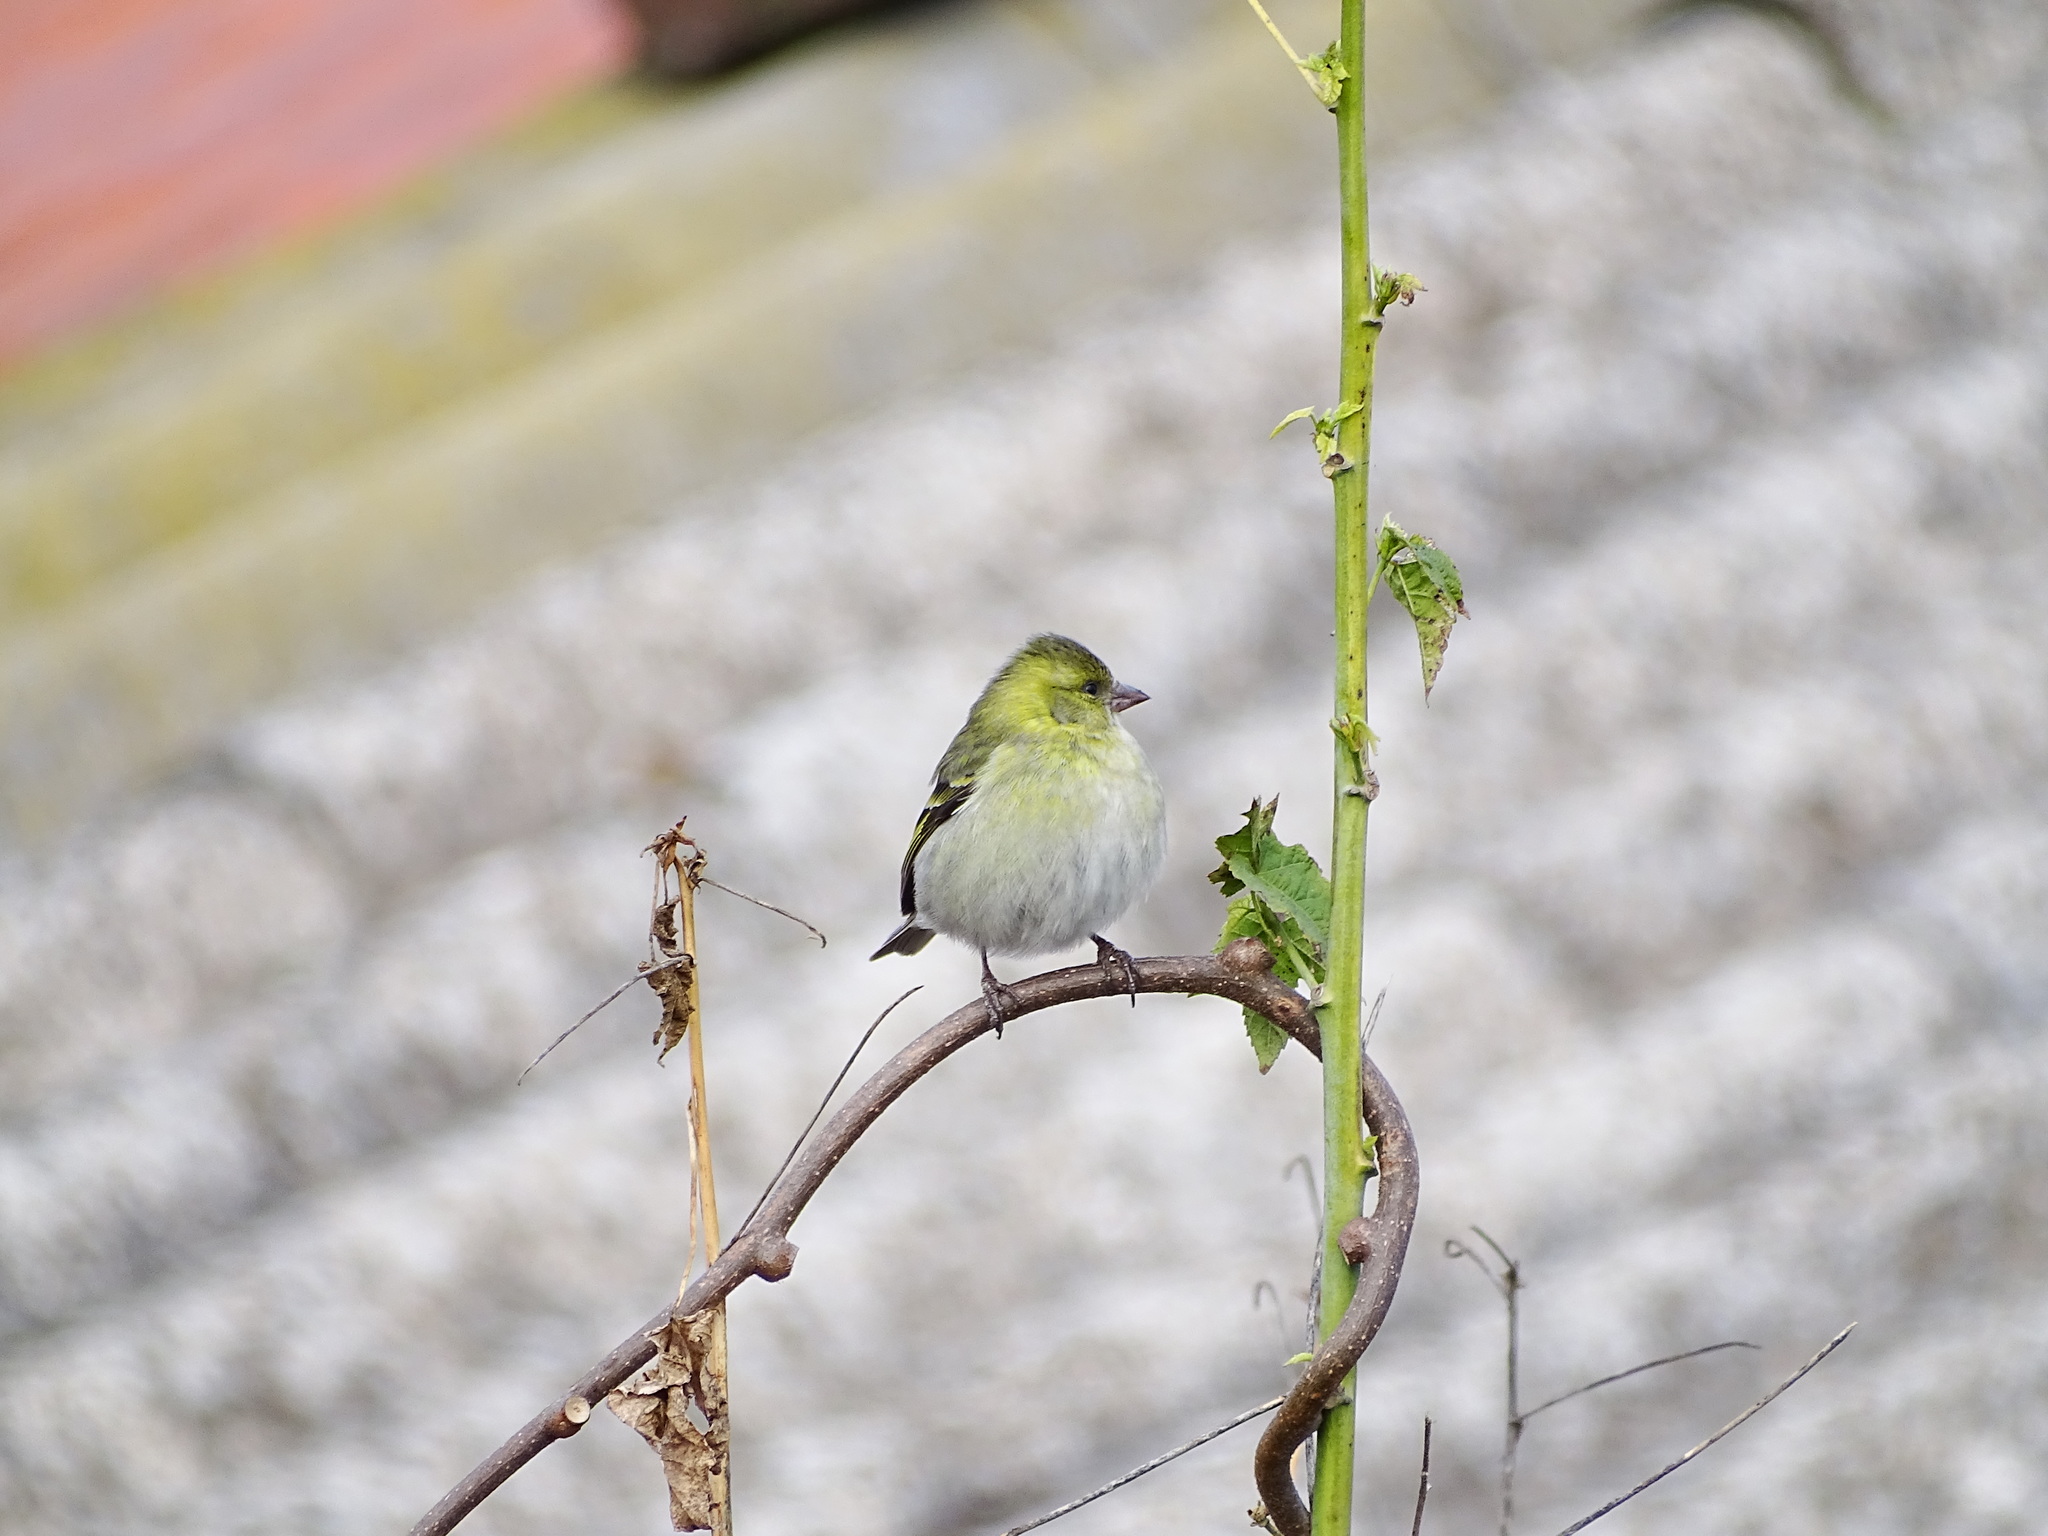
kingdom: Animalia
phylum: Chordata
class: Aves
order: Passeriformes
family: Fringillidae
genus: Spinus
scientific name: Spinus barbatus
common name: Black-chinned siskin
